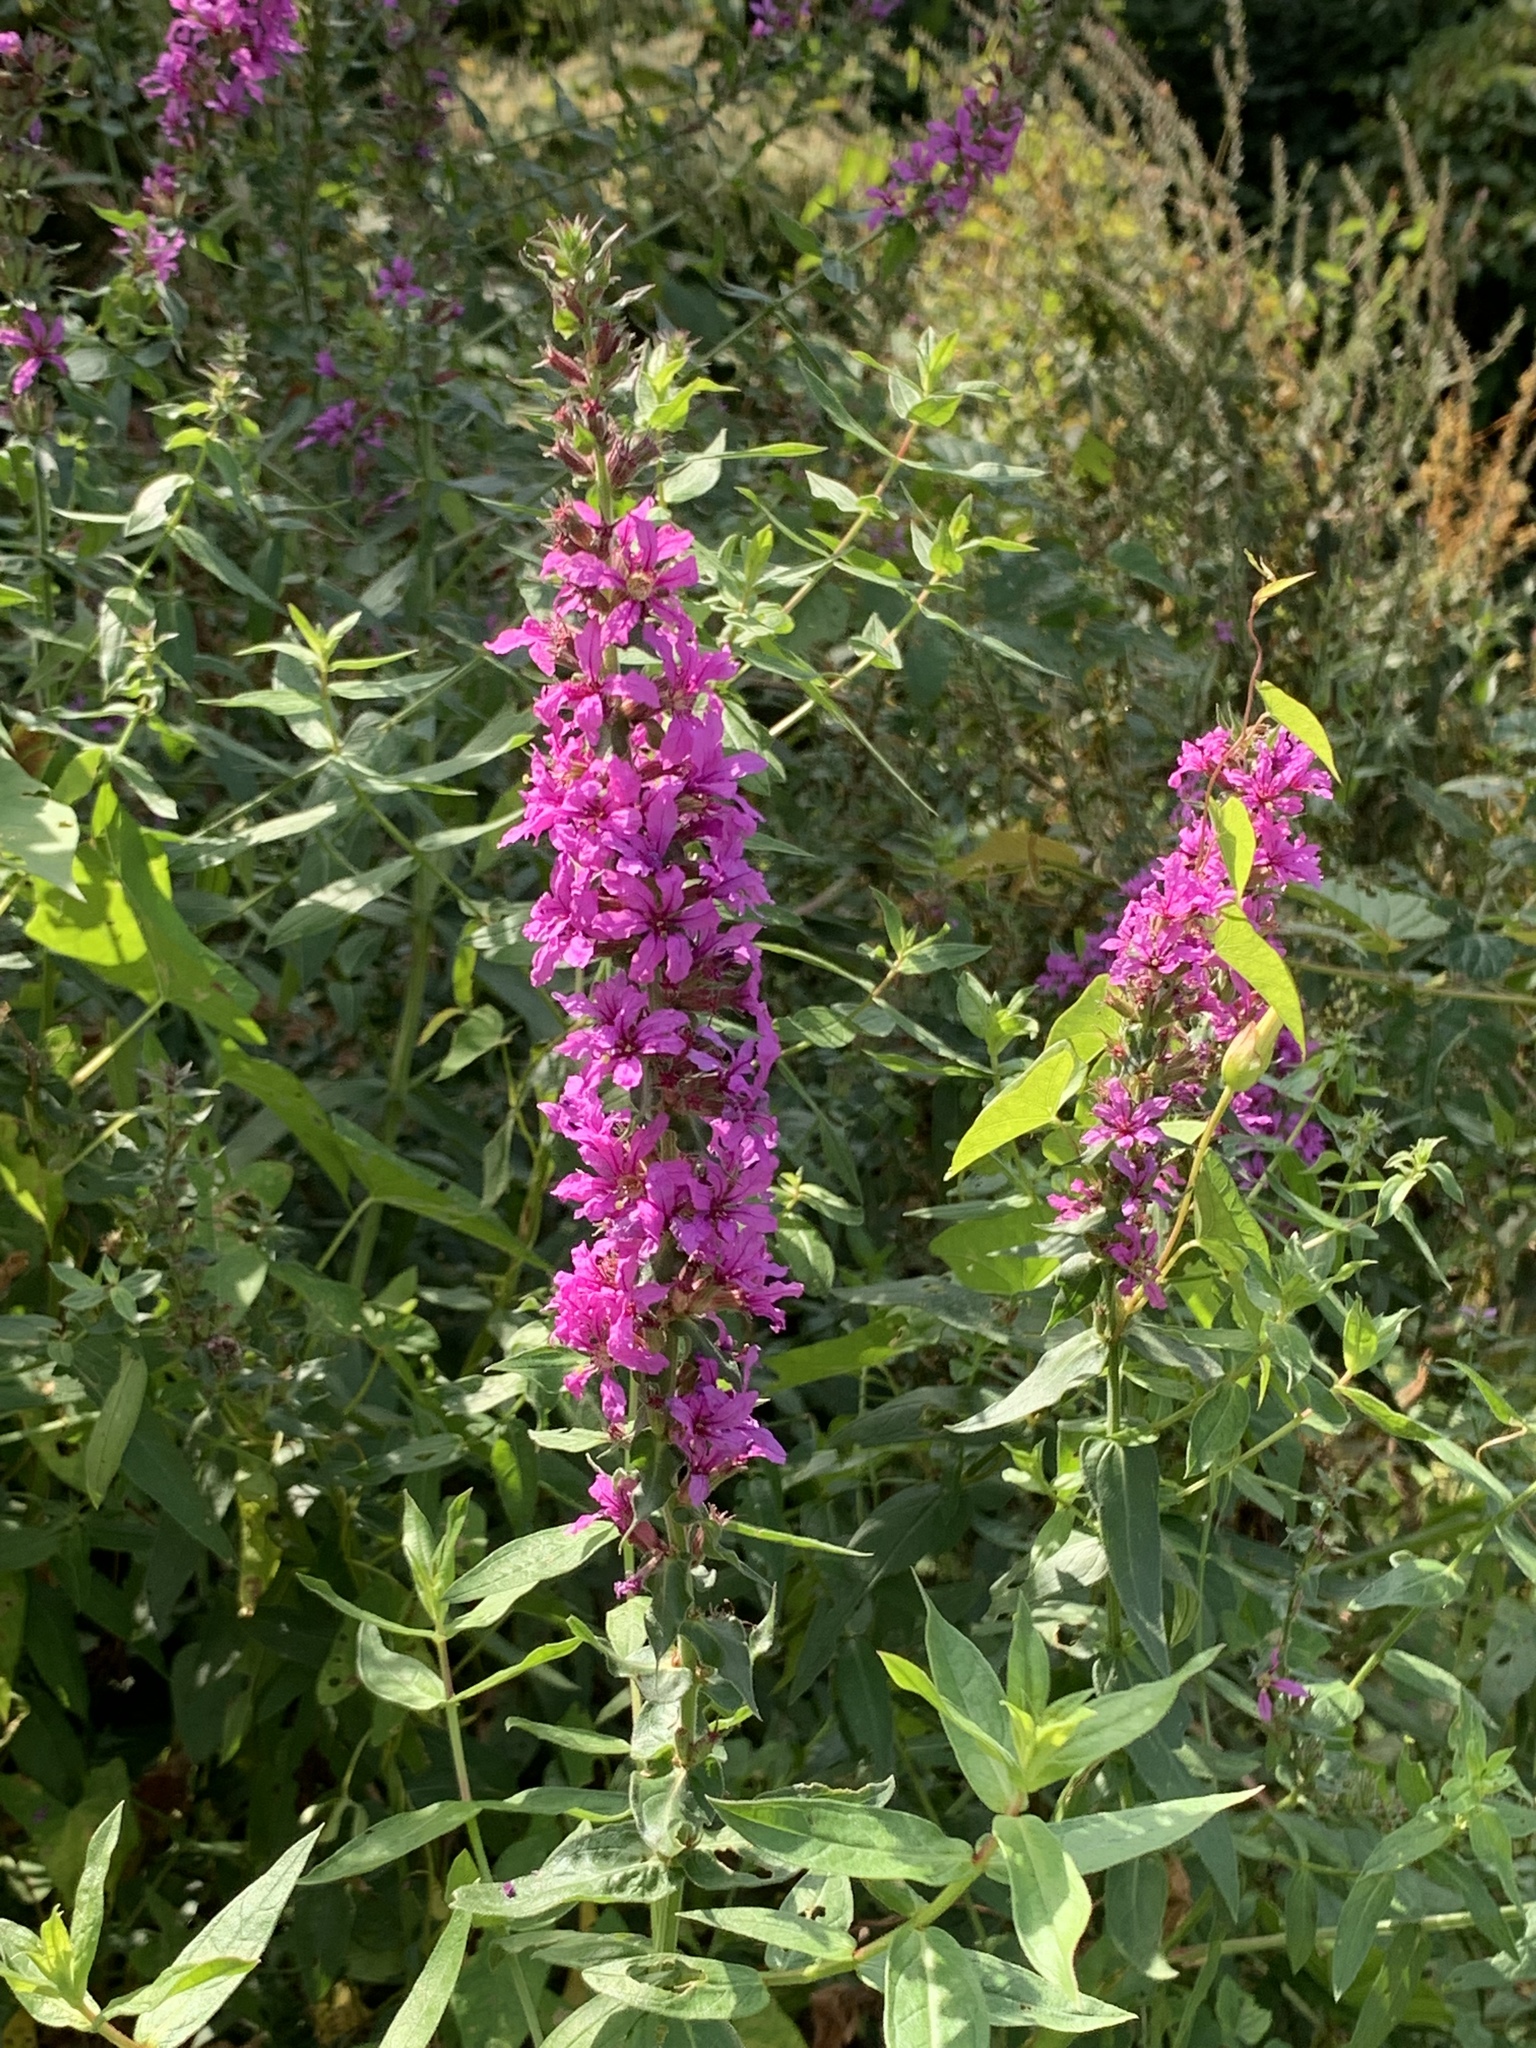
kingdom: Plantae
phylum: Tracheophyta
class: Magnoliopsida
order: Myrtales
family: Lythraceae
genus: Lythrum
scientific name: Lythrum salicaria
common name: Purple loosestrife
